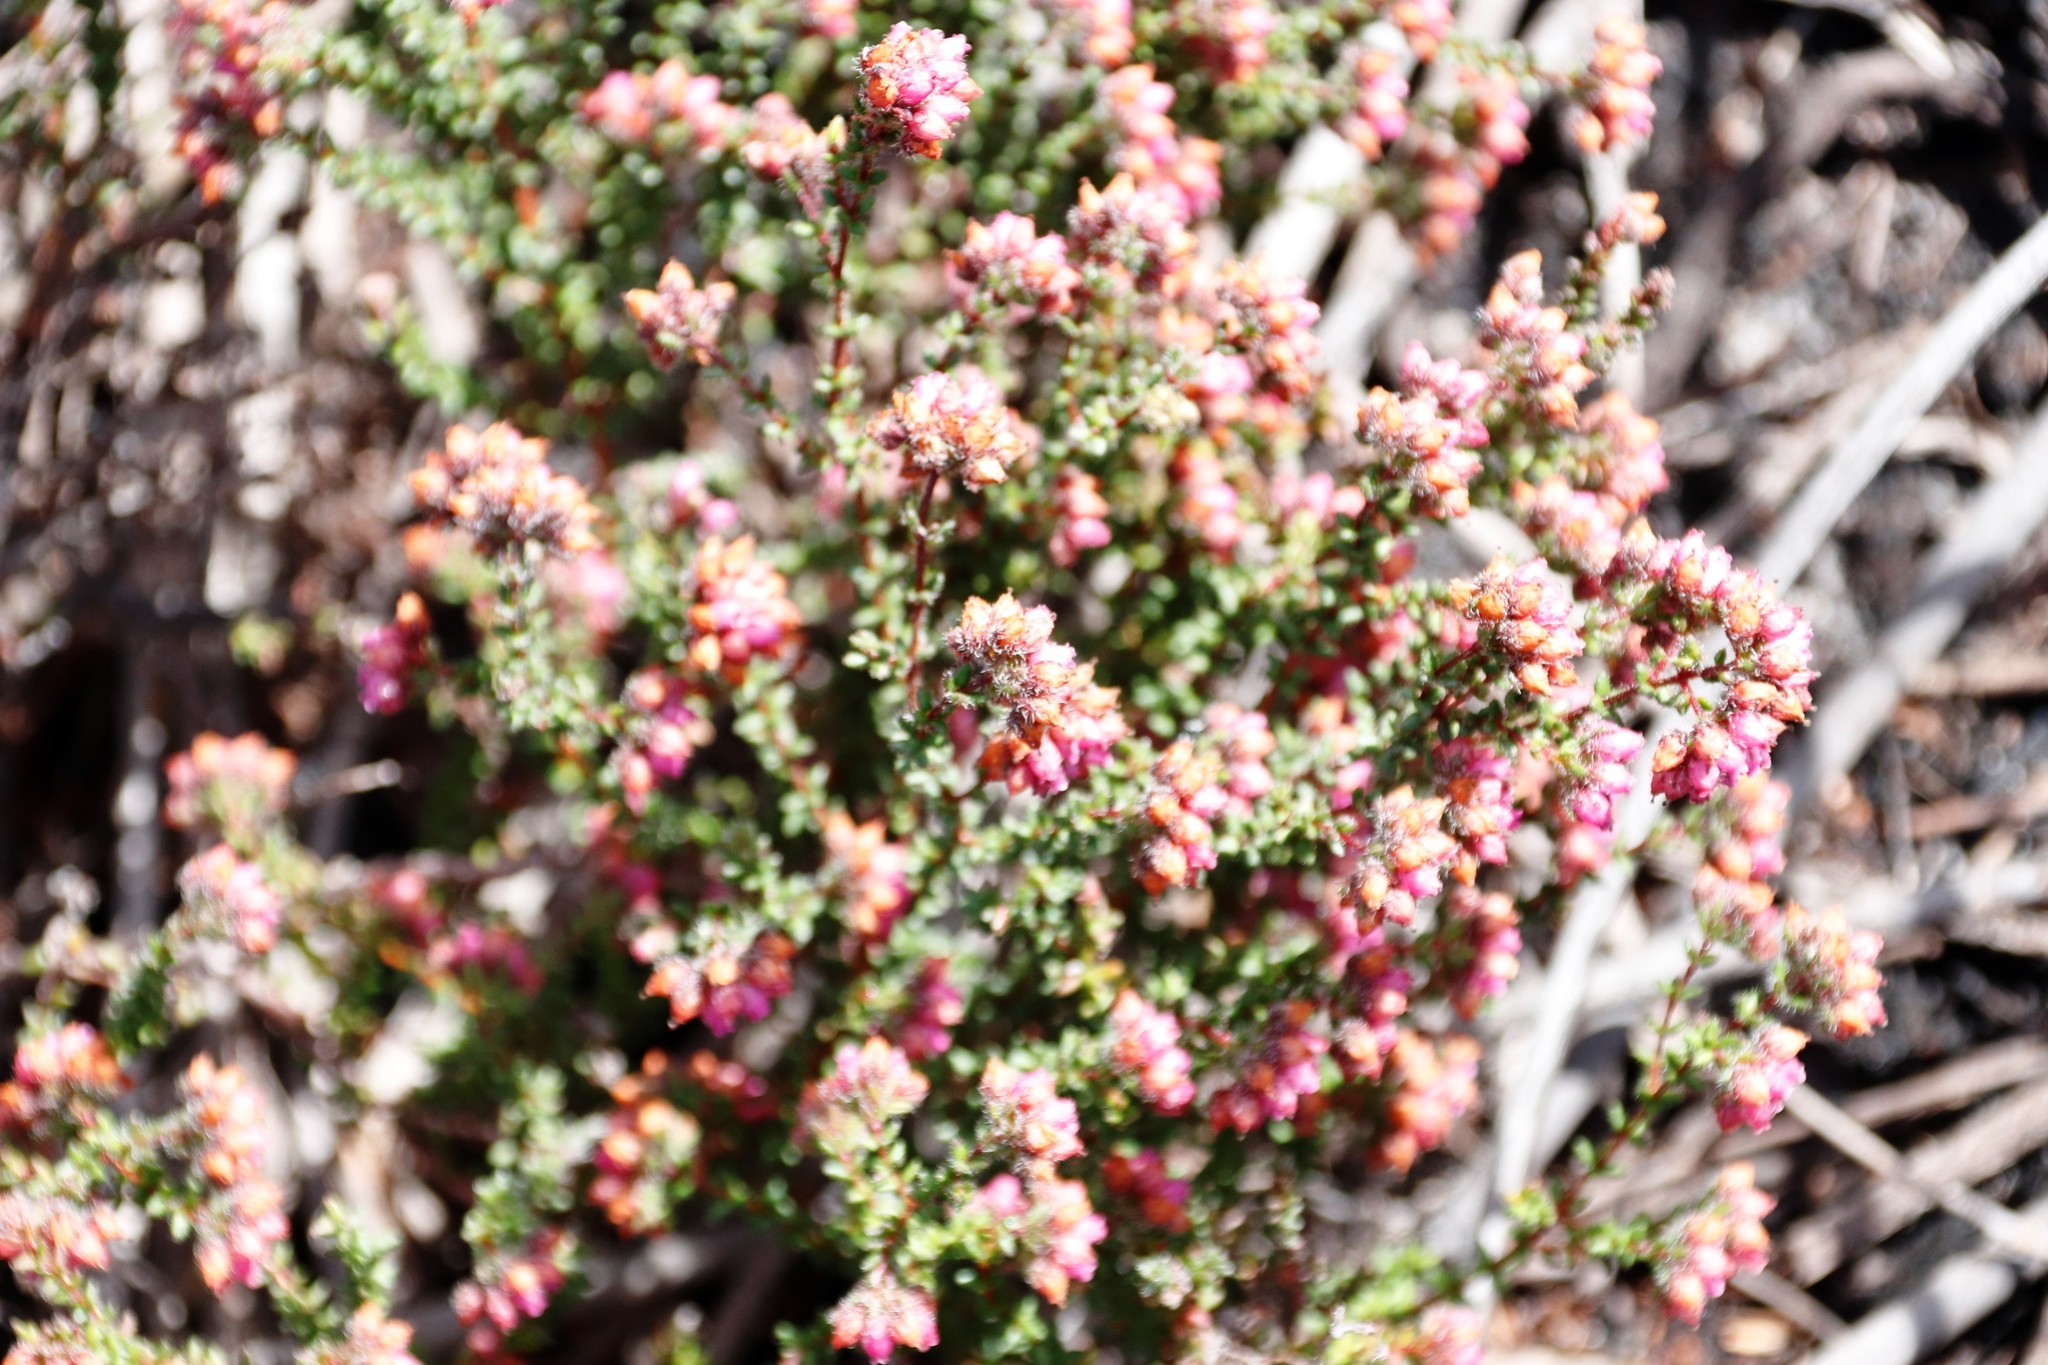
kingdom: Plantae
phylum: Tracheophyta
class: Magnoliopsida
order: Ericales
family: Ericaceae
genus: Erica
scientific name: Erica clavisepala
